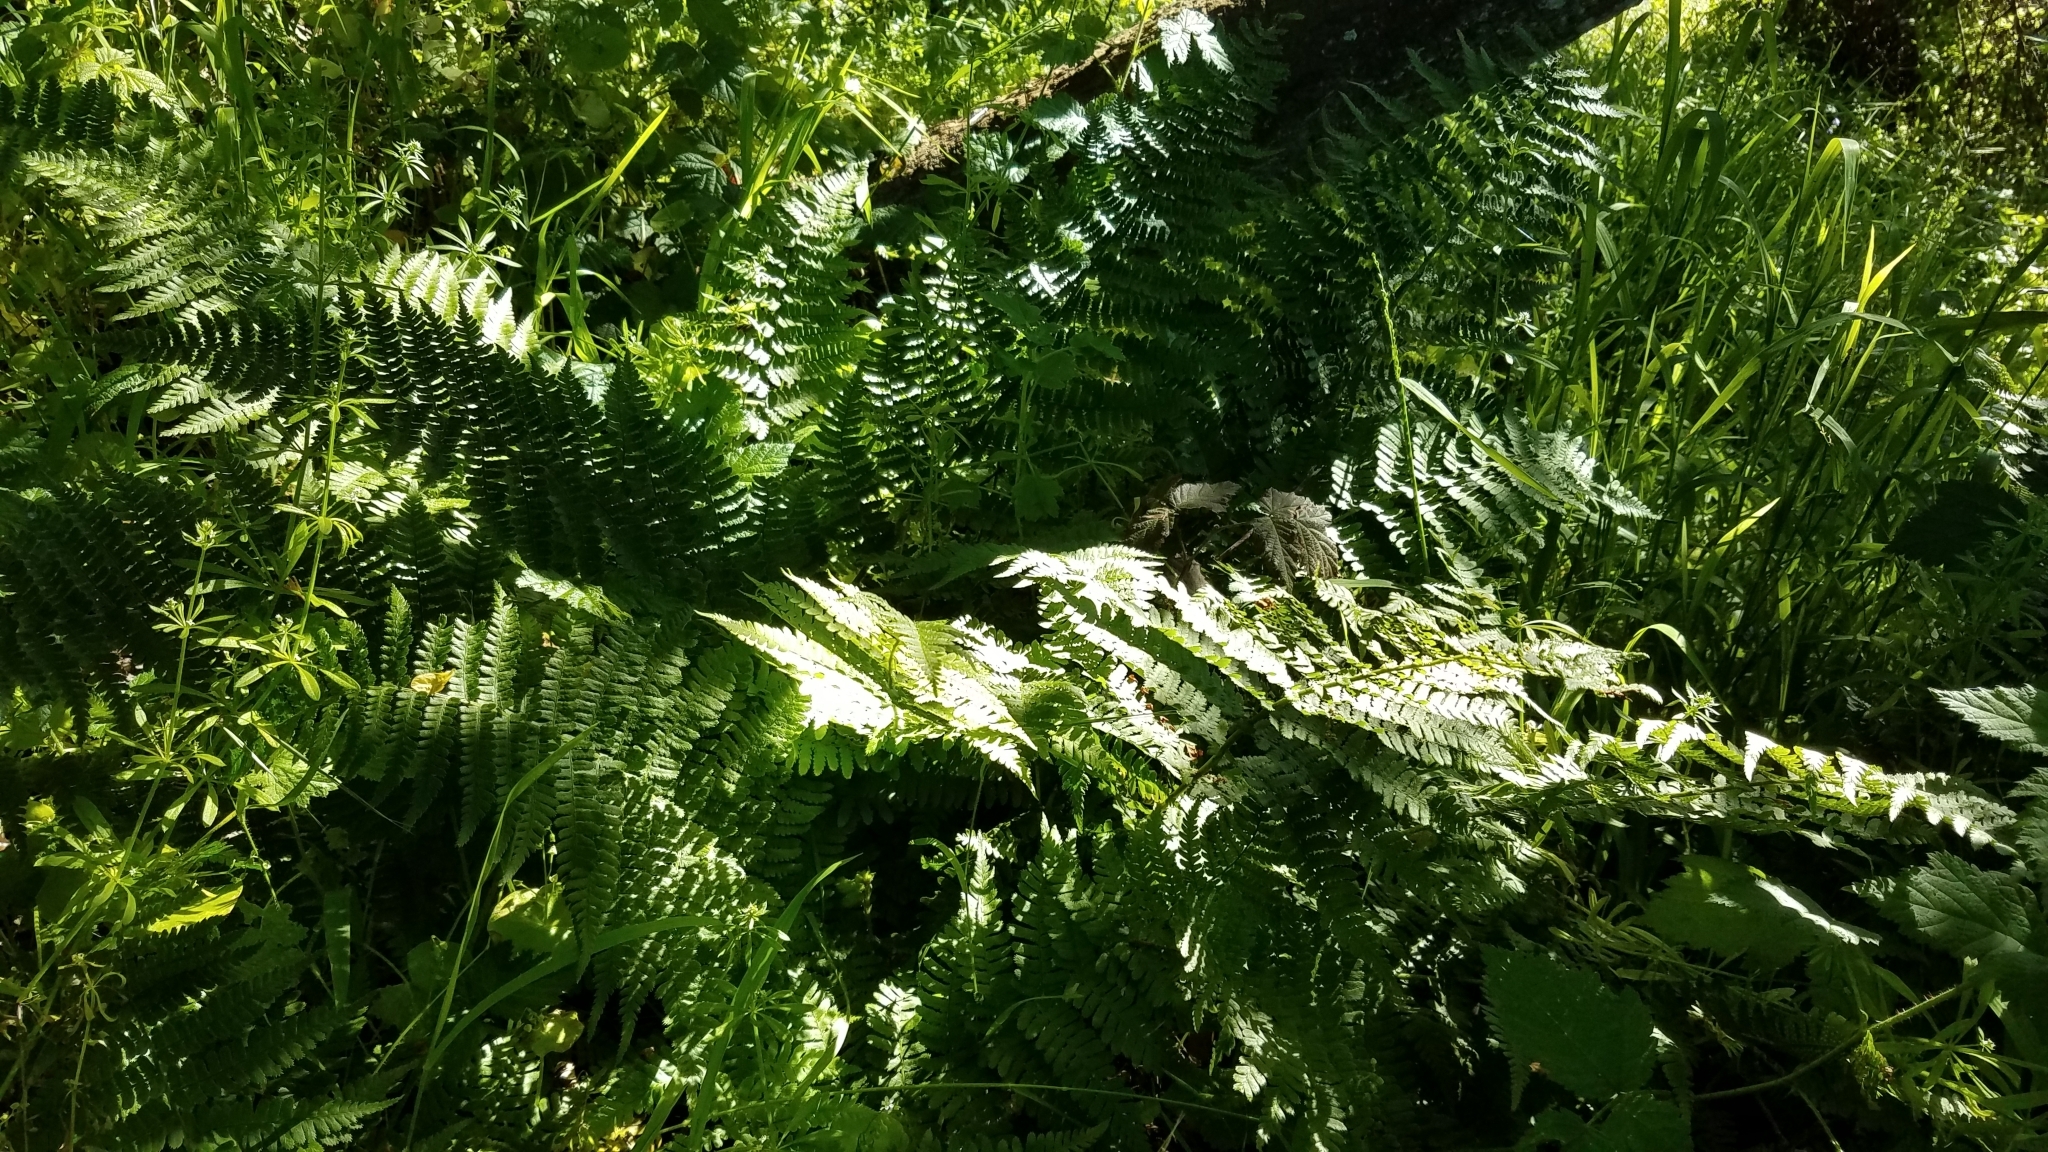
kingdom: Plantae
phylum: Tracheophyta
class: Polypodiopsida
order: Polypodiales
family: Dryopteridaceae
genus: Dryopteris
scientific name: Dryopteris arguta
